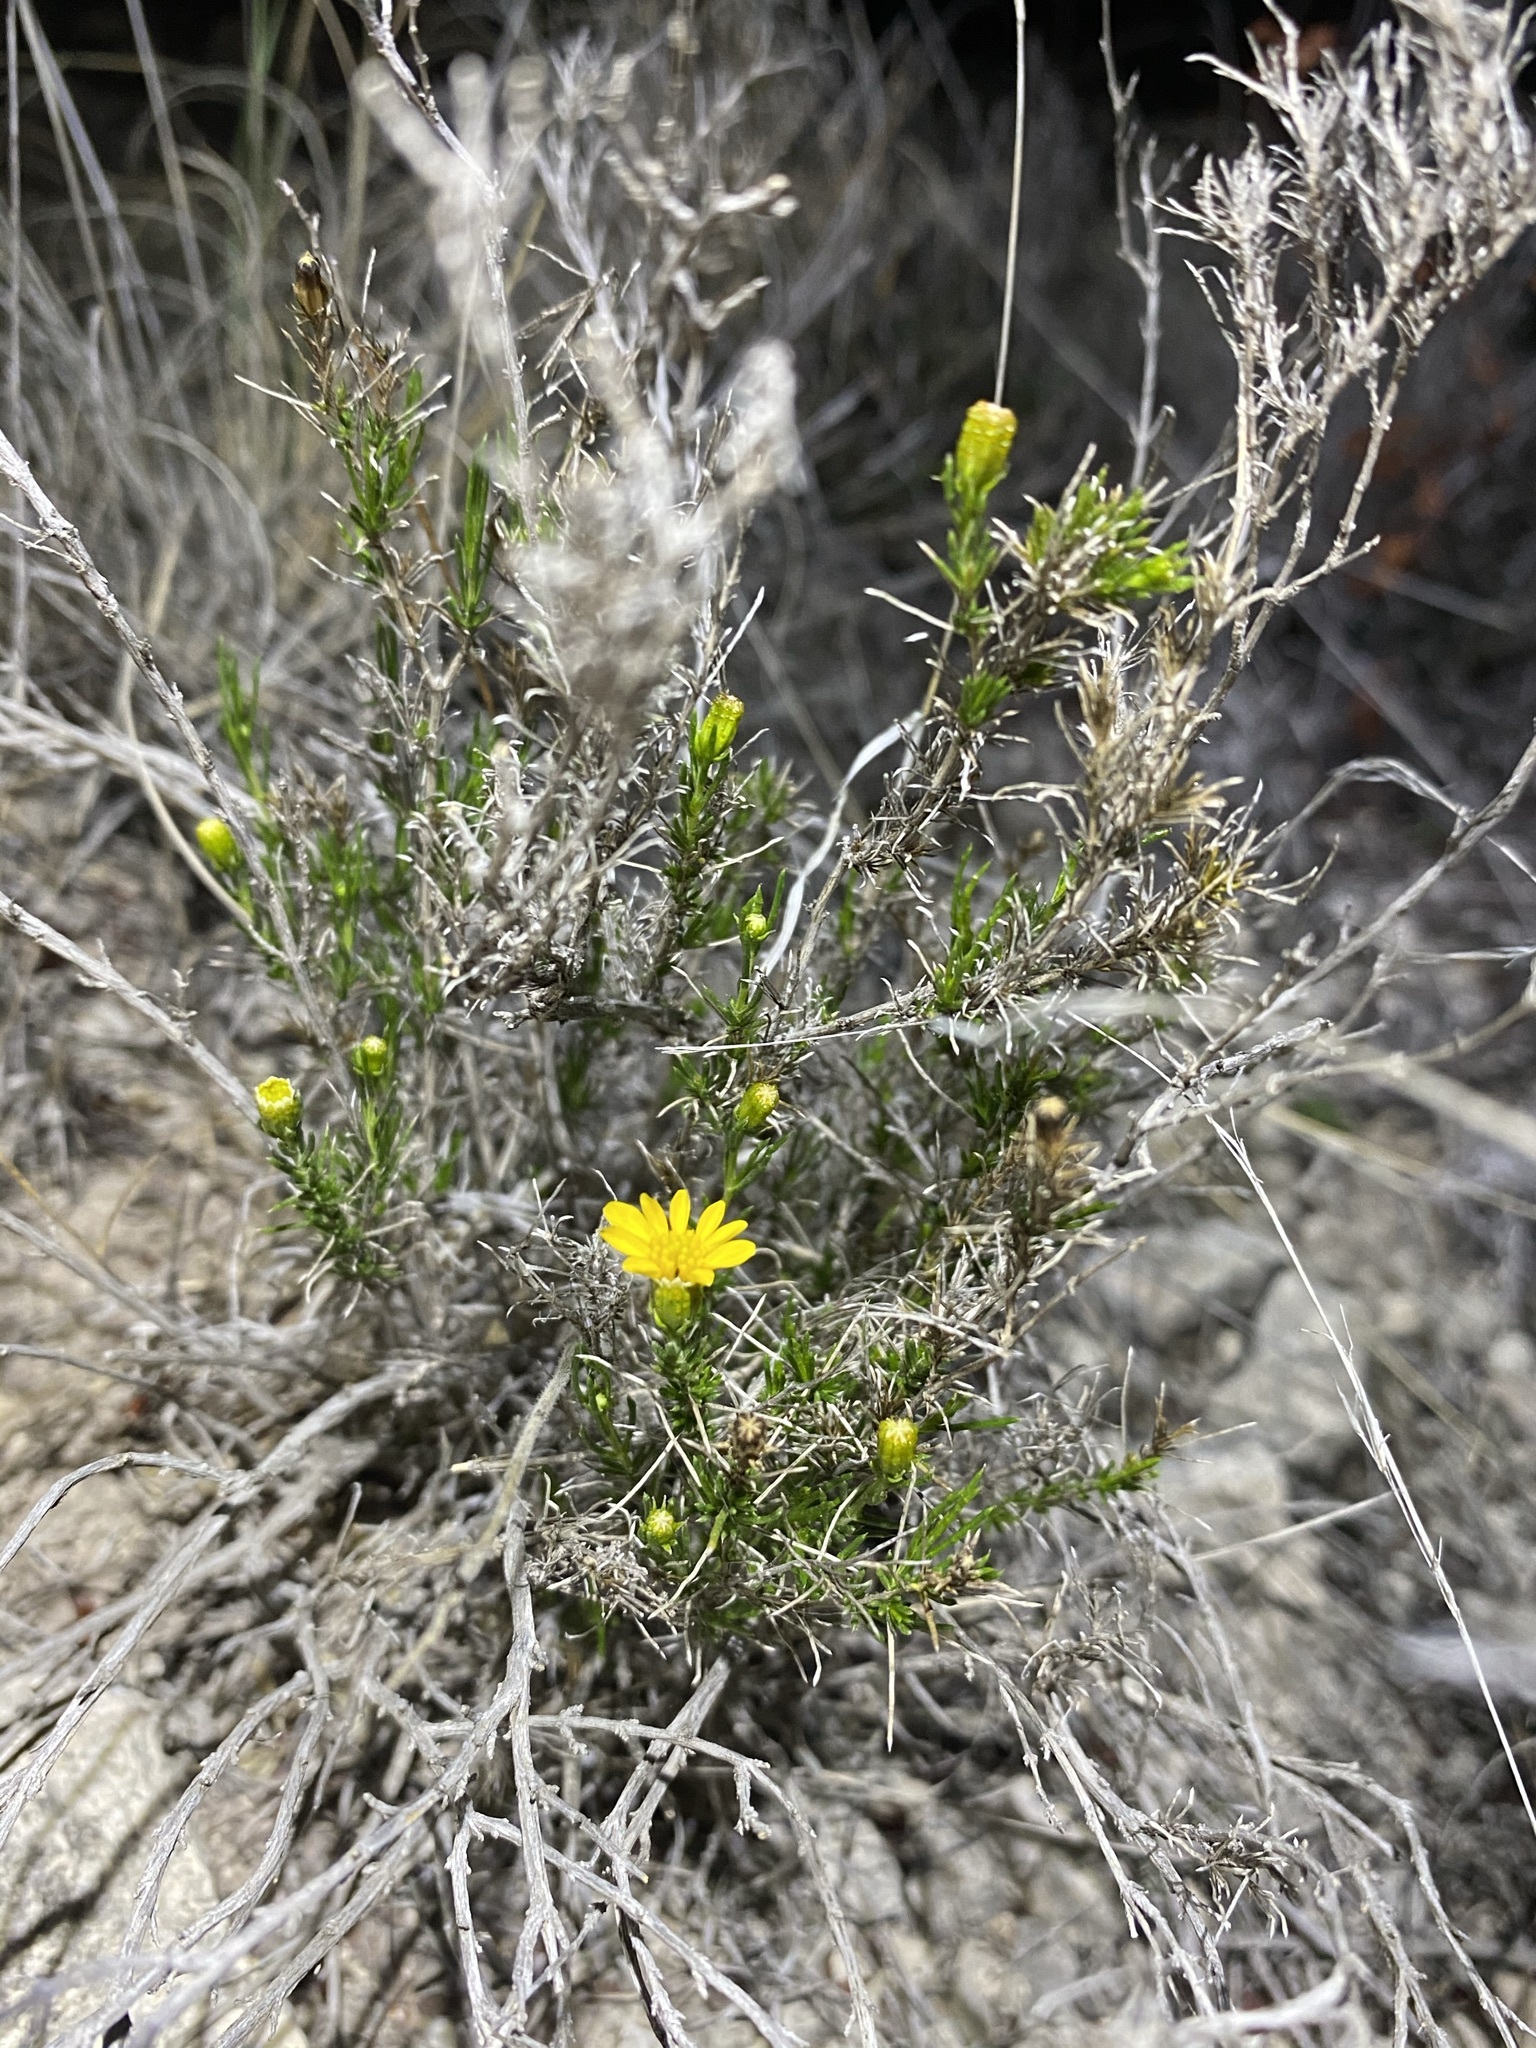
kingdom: Plantae
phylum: Tracheophyta
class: Magnoliopsida
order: Asterales
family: Asteraceae
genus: Thymophylla
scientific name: Thymophylla acerosa
